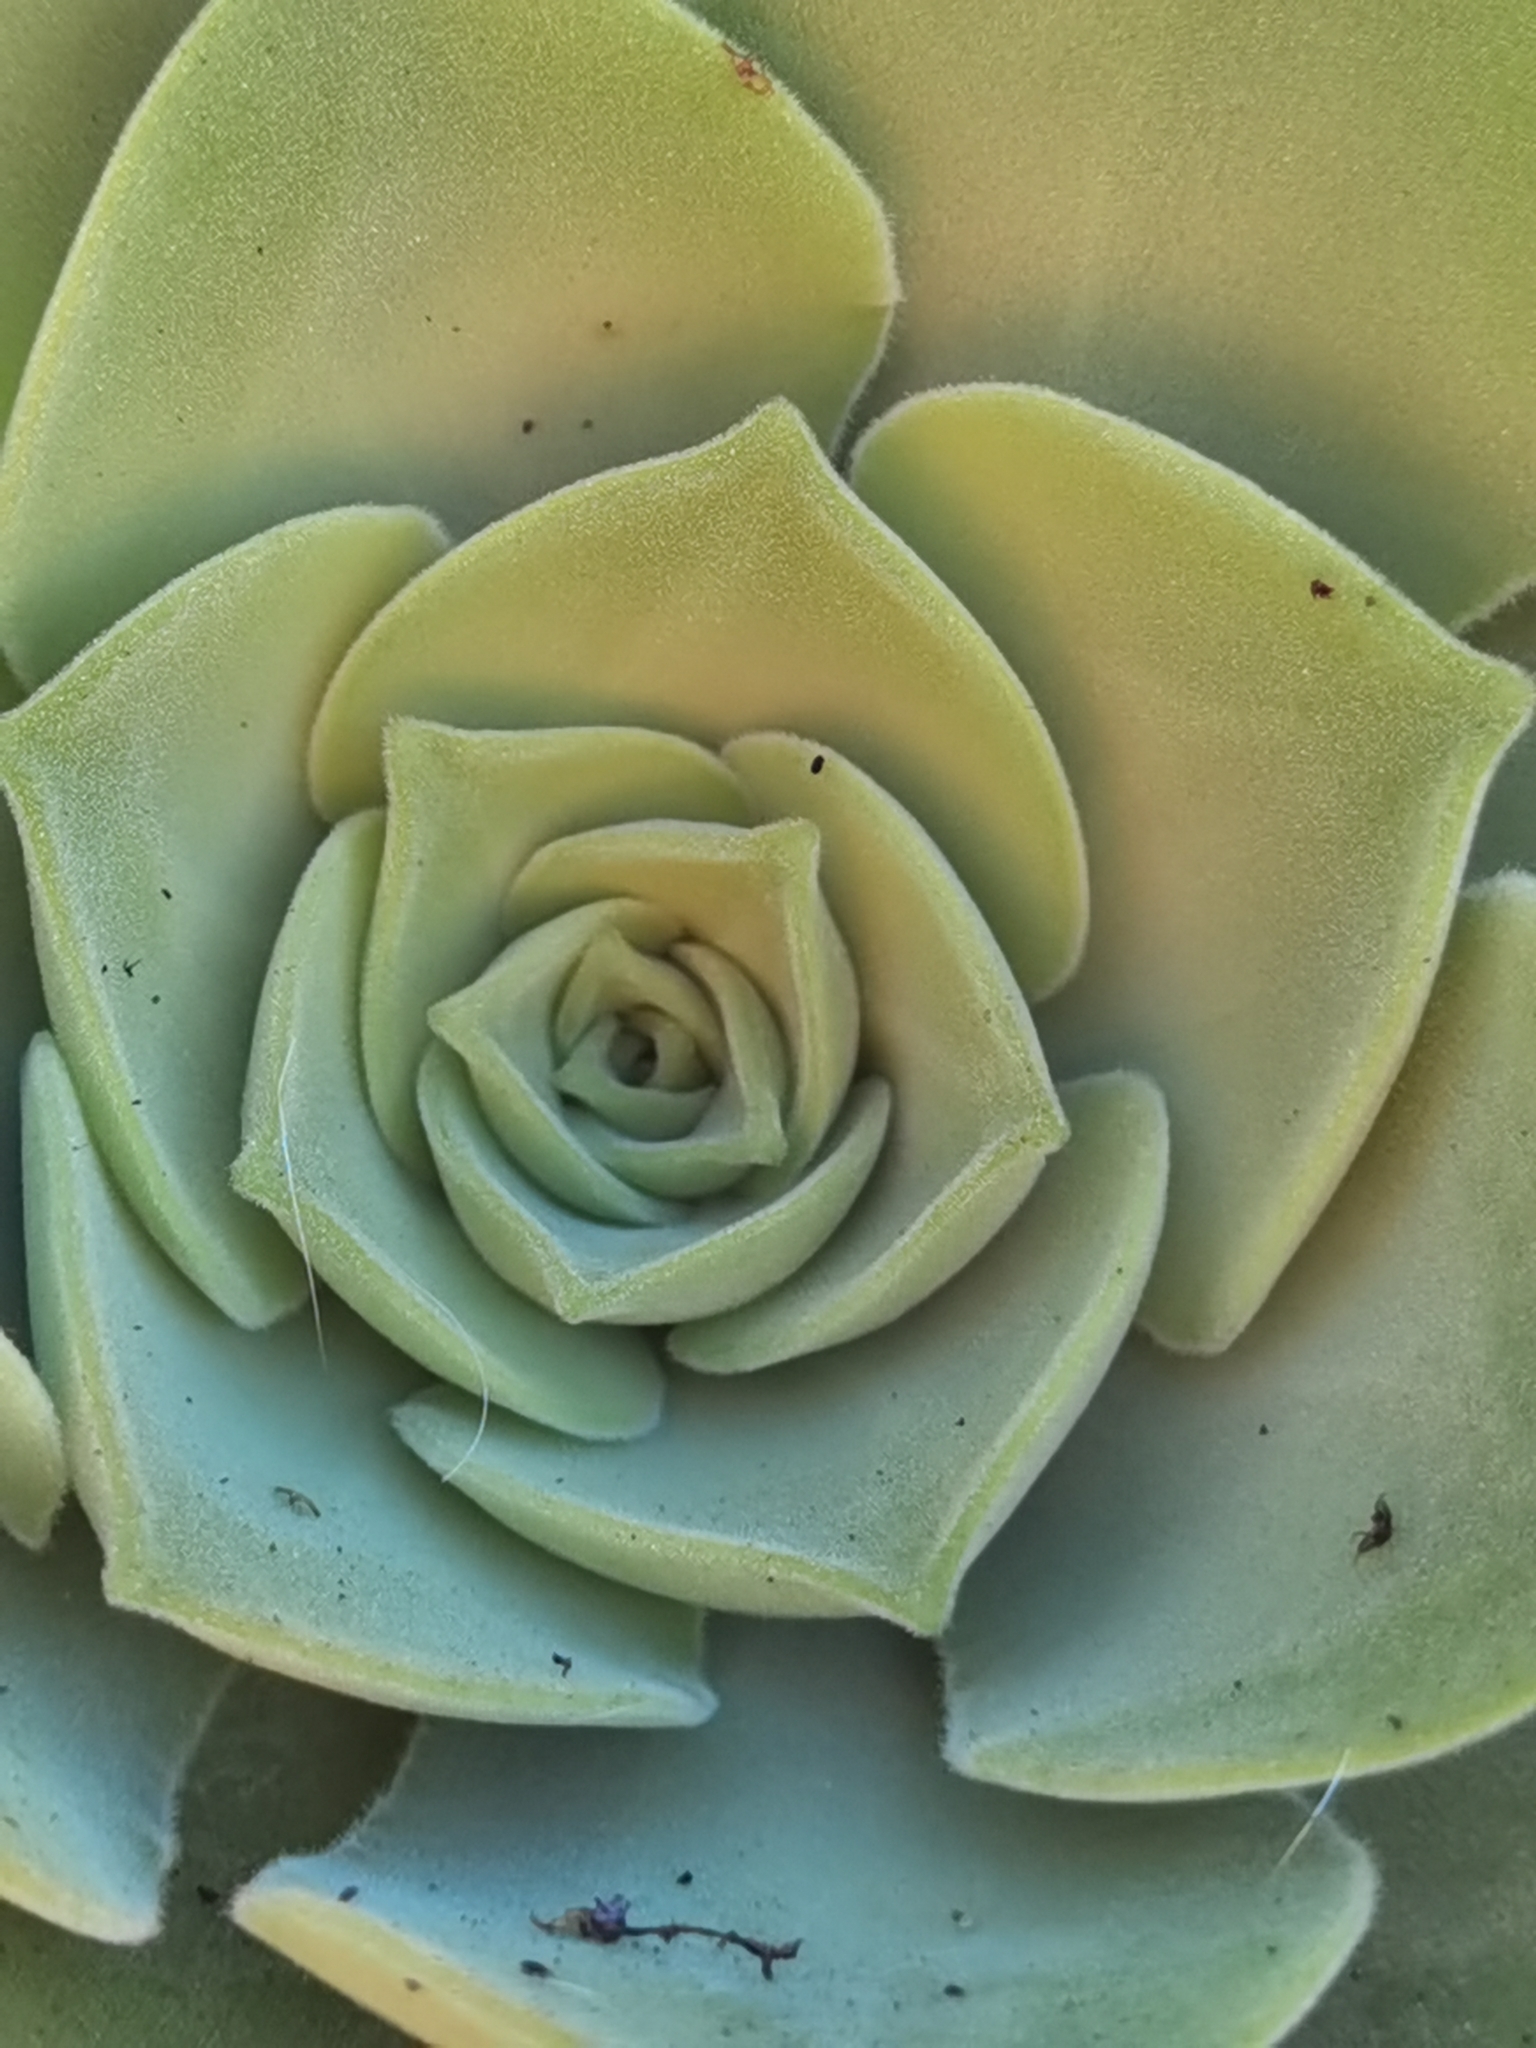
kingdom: Plantae
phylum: Tracheophyta
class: Magnoliopsida
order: Saxifragales
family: Crassulaceae
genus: Aeonium
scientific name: Aeonium canariense
